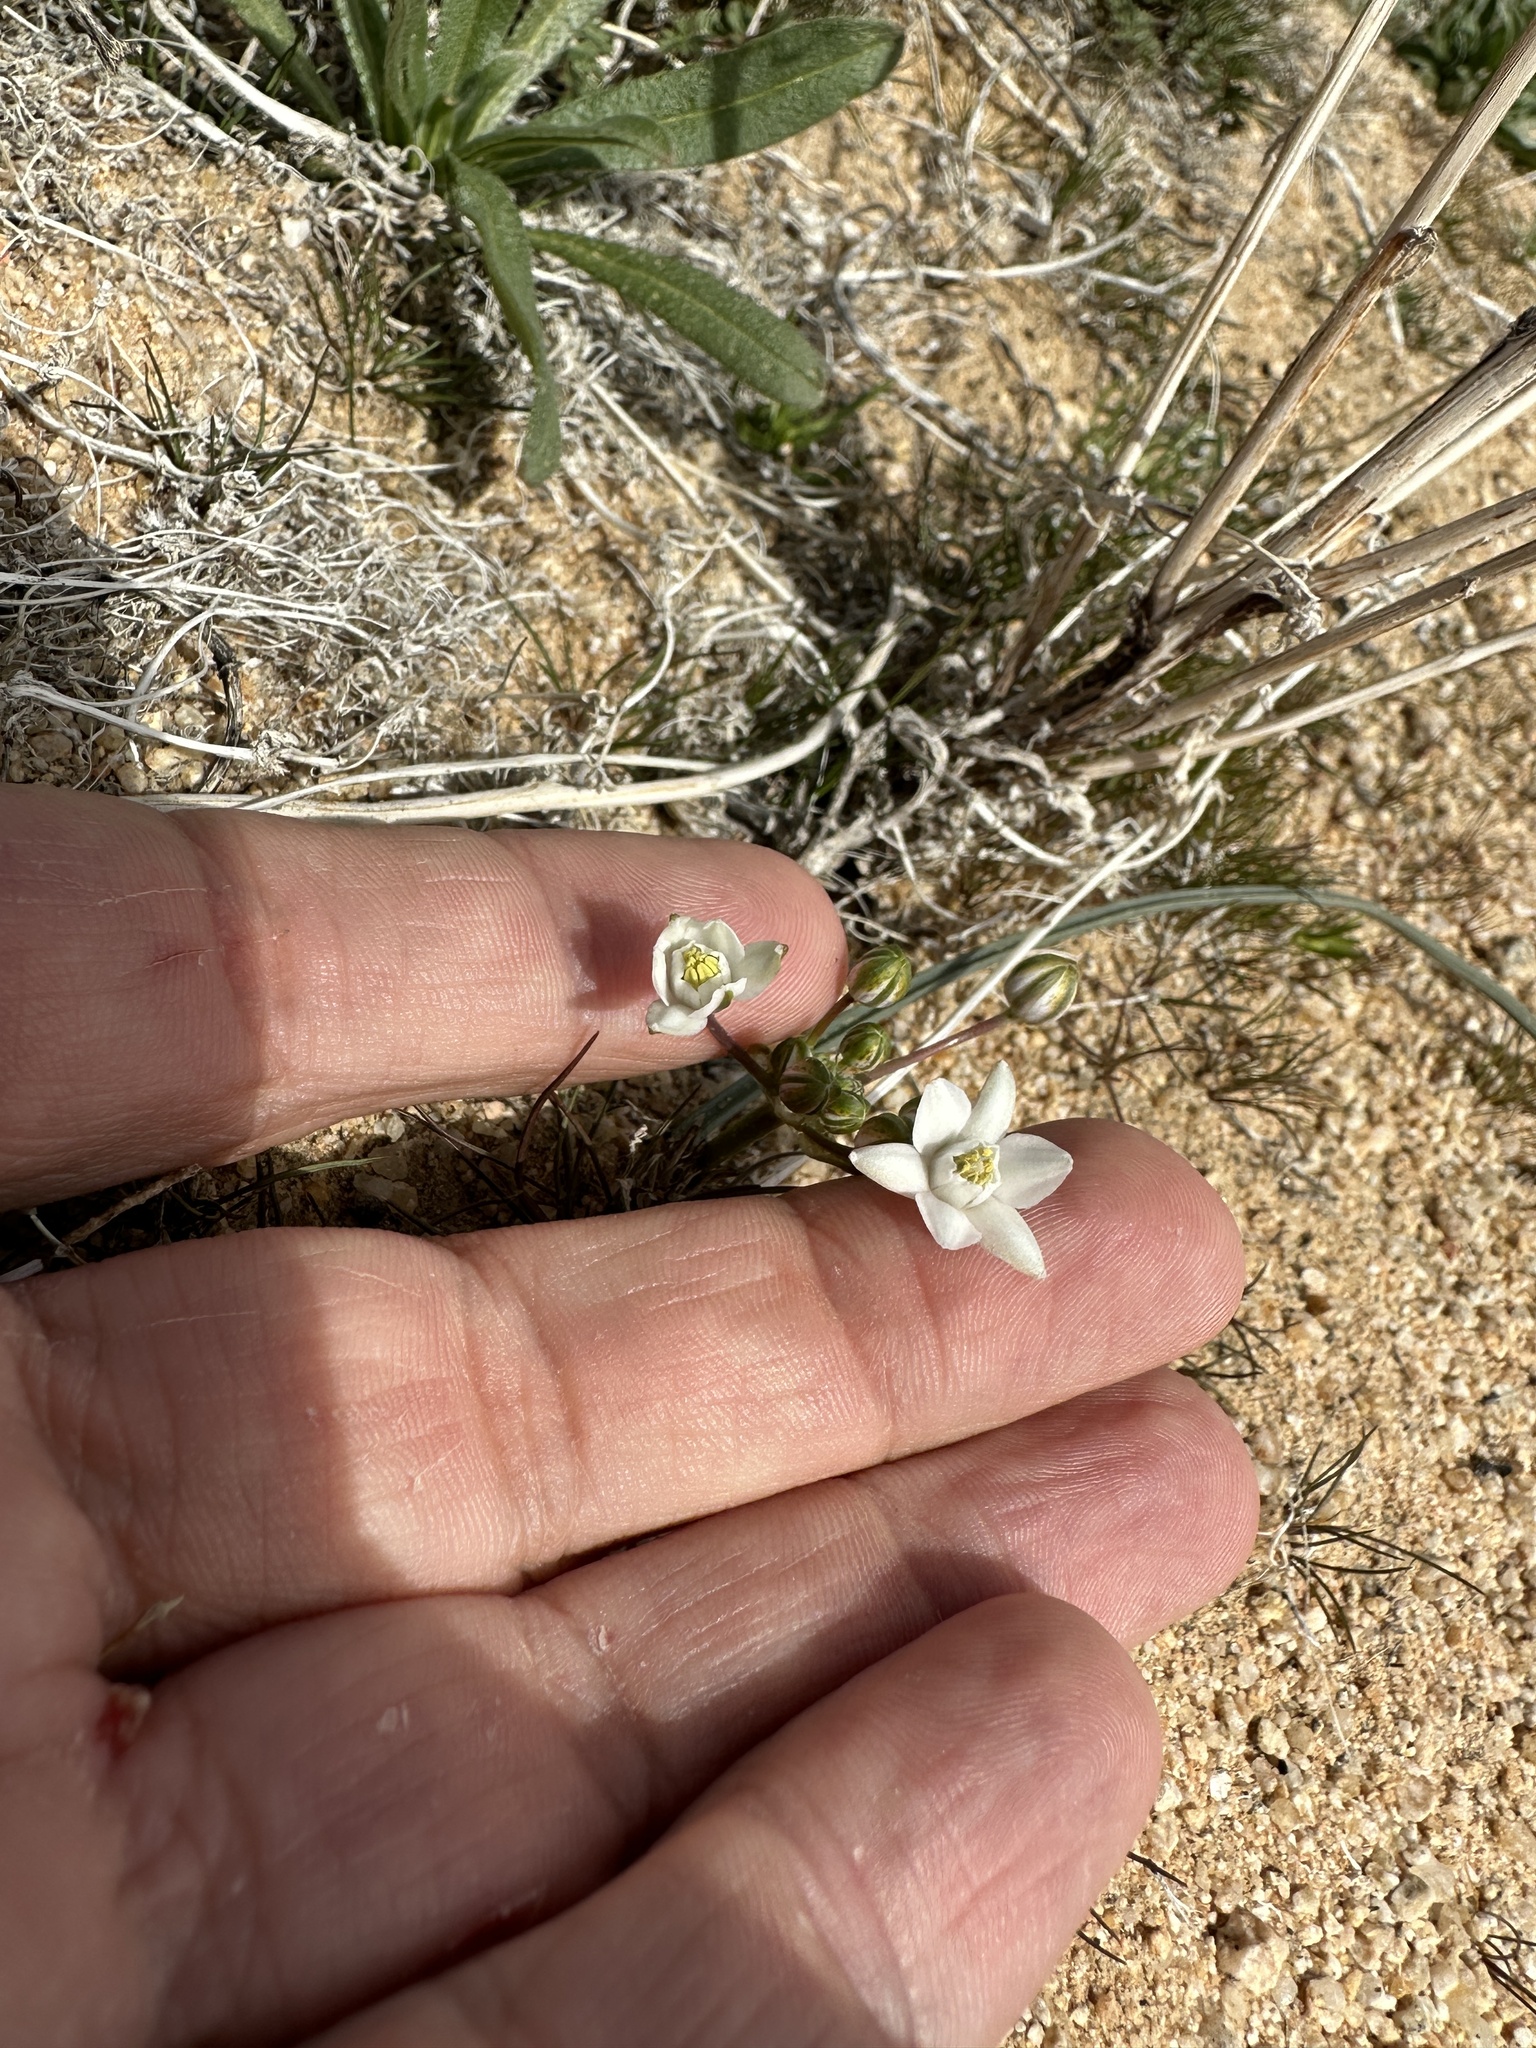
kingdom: Plantae
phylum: Tracheophyta
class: Liliopsida
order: Asparagales
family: Asparagaceae
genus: Muilla
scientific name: Muilla coronata
